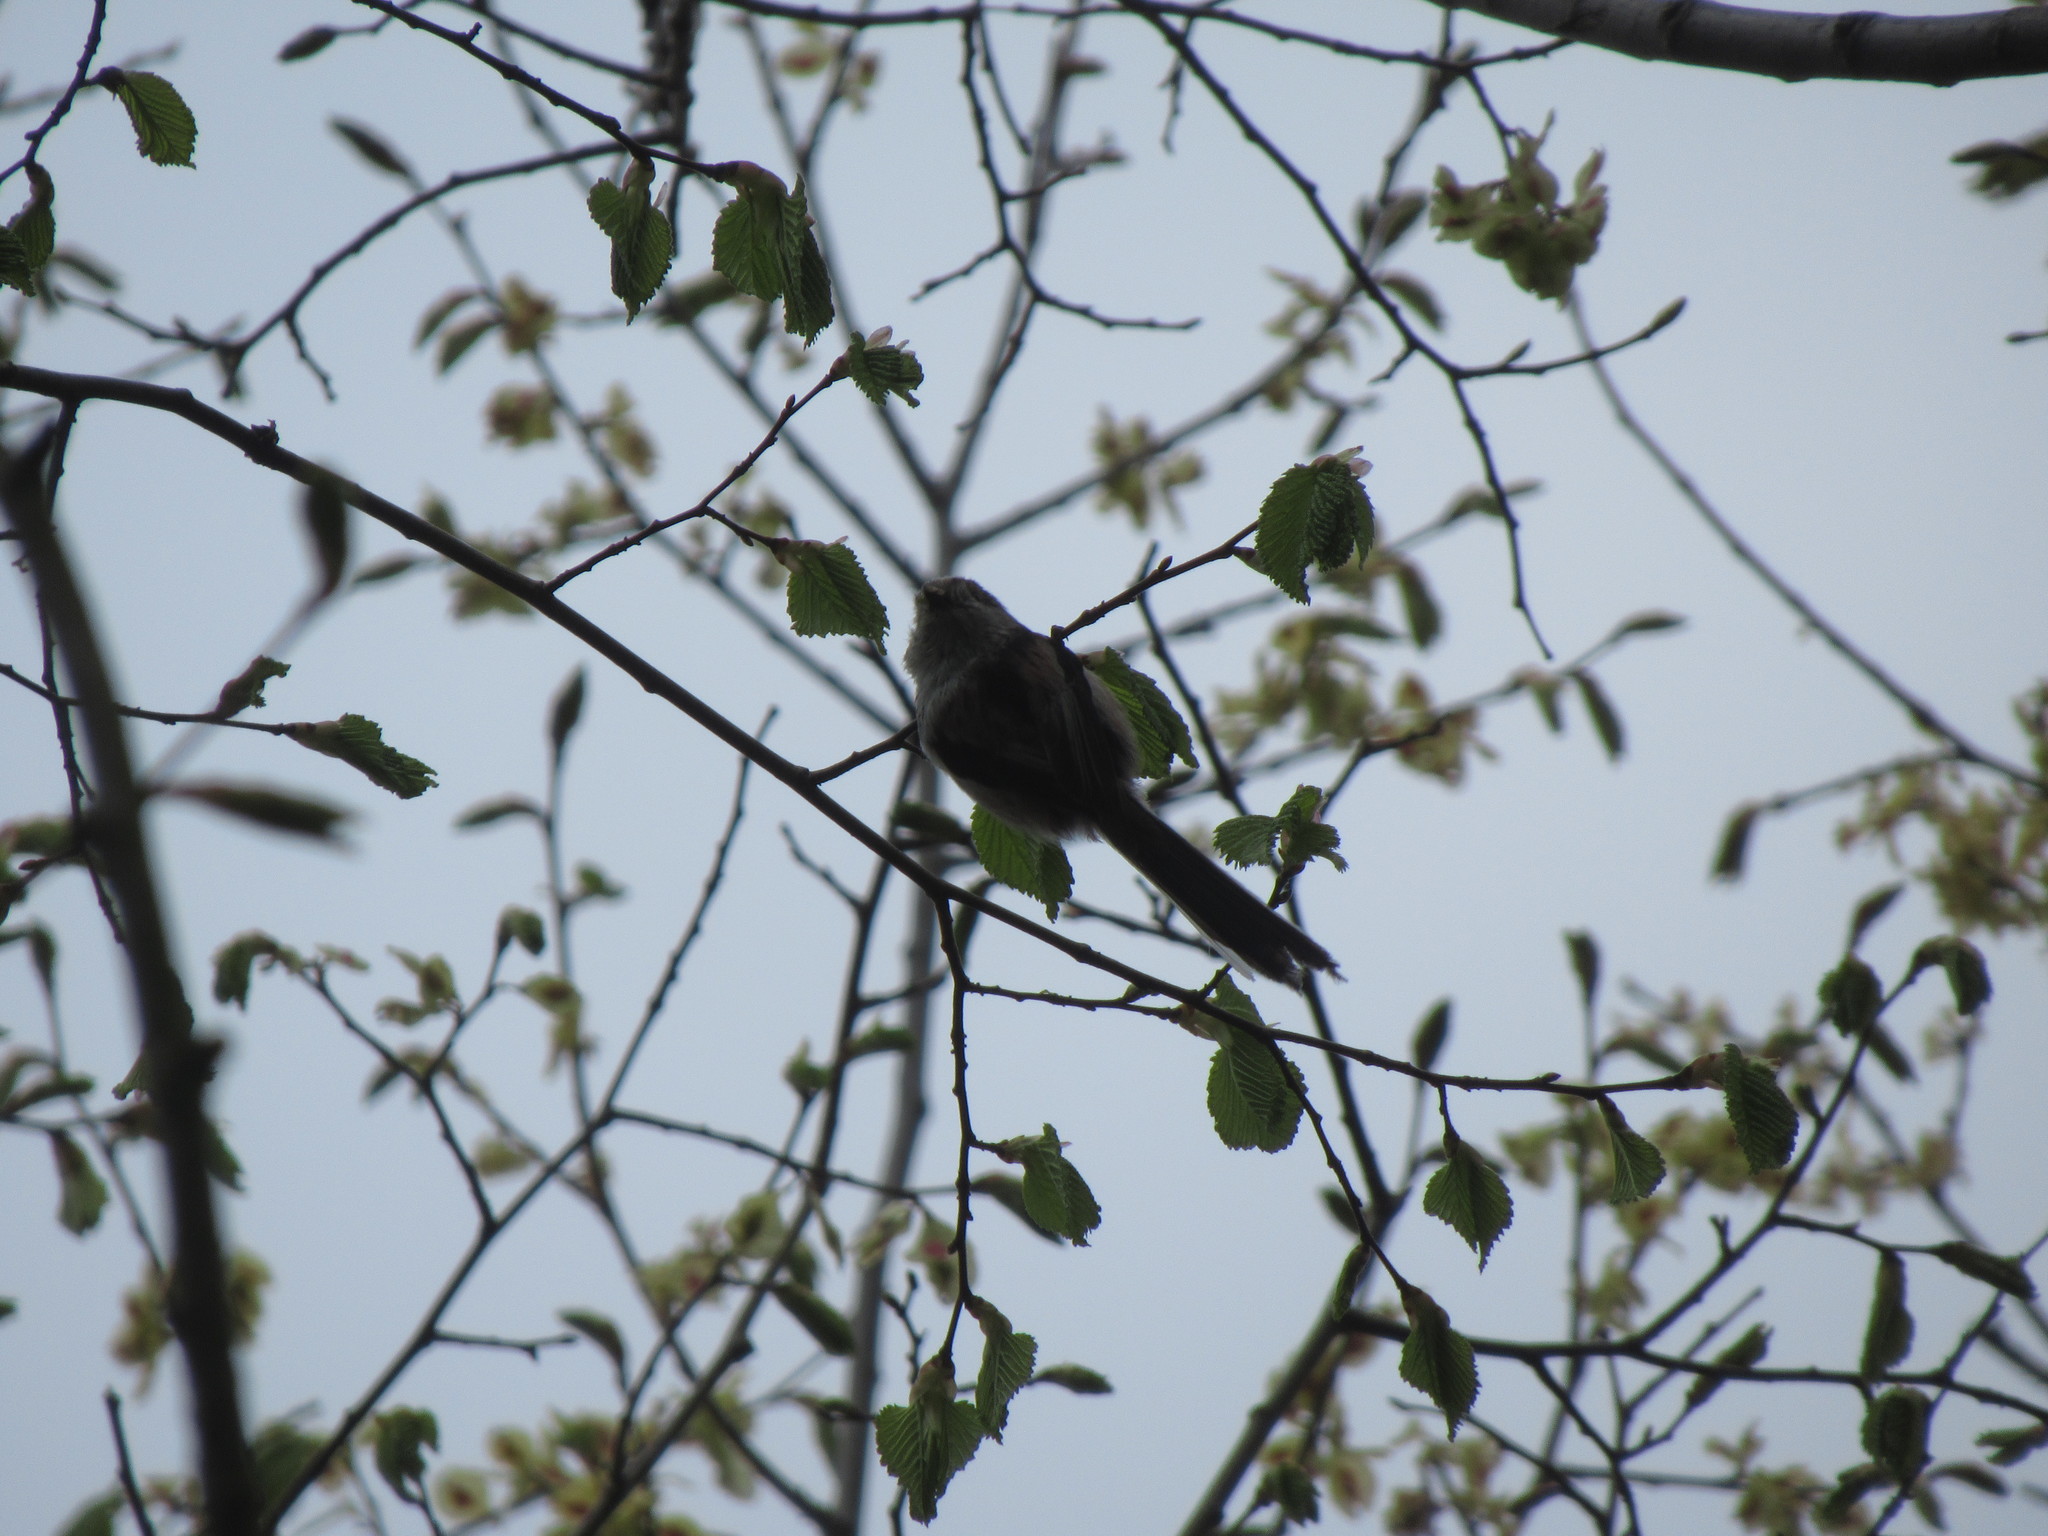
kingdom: Animalia
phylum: Chordata
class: Aves
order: Passeriformes
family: Aegithalidae
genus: Aegithalos
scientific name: Aegithalos caudatus
